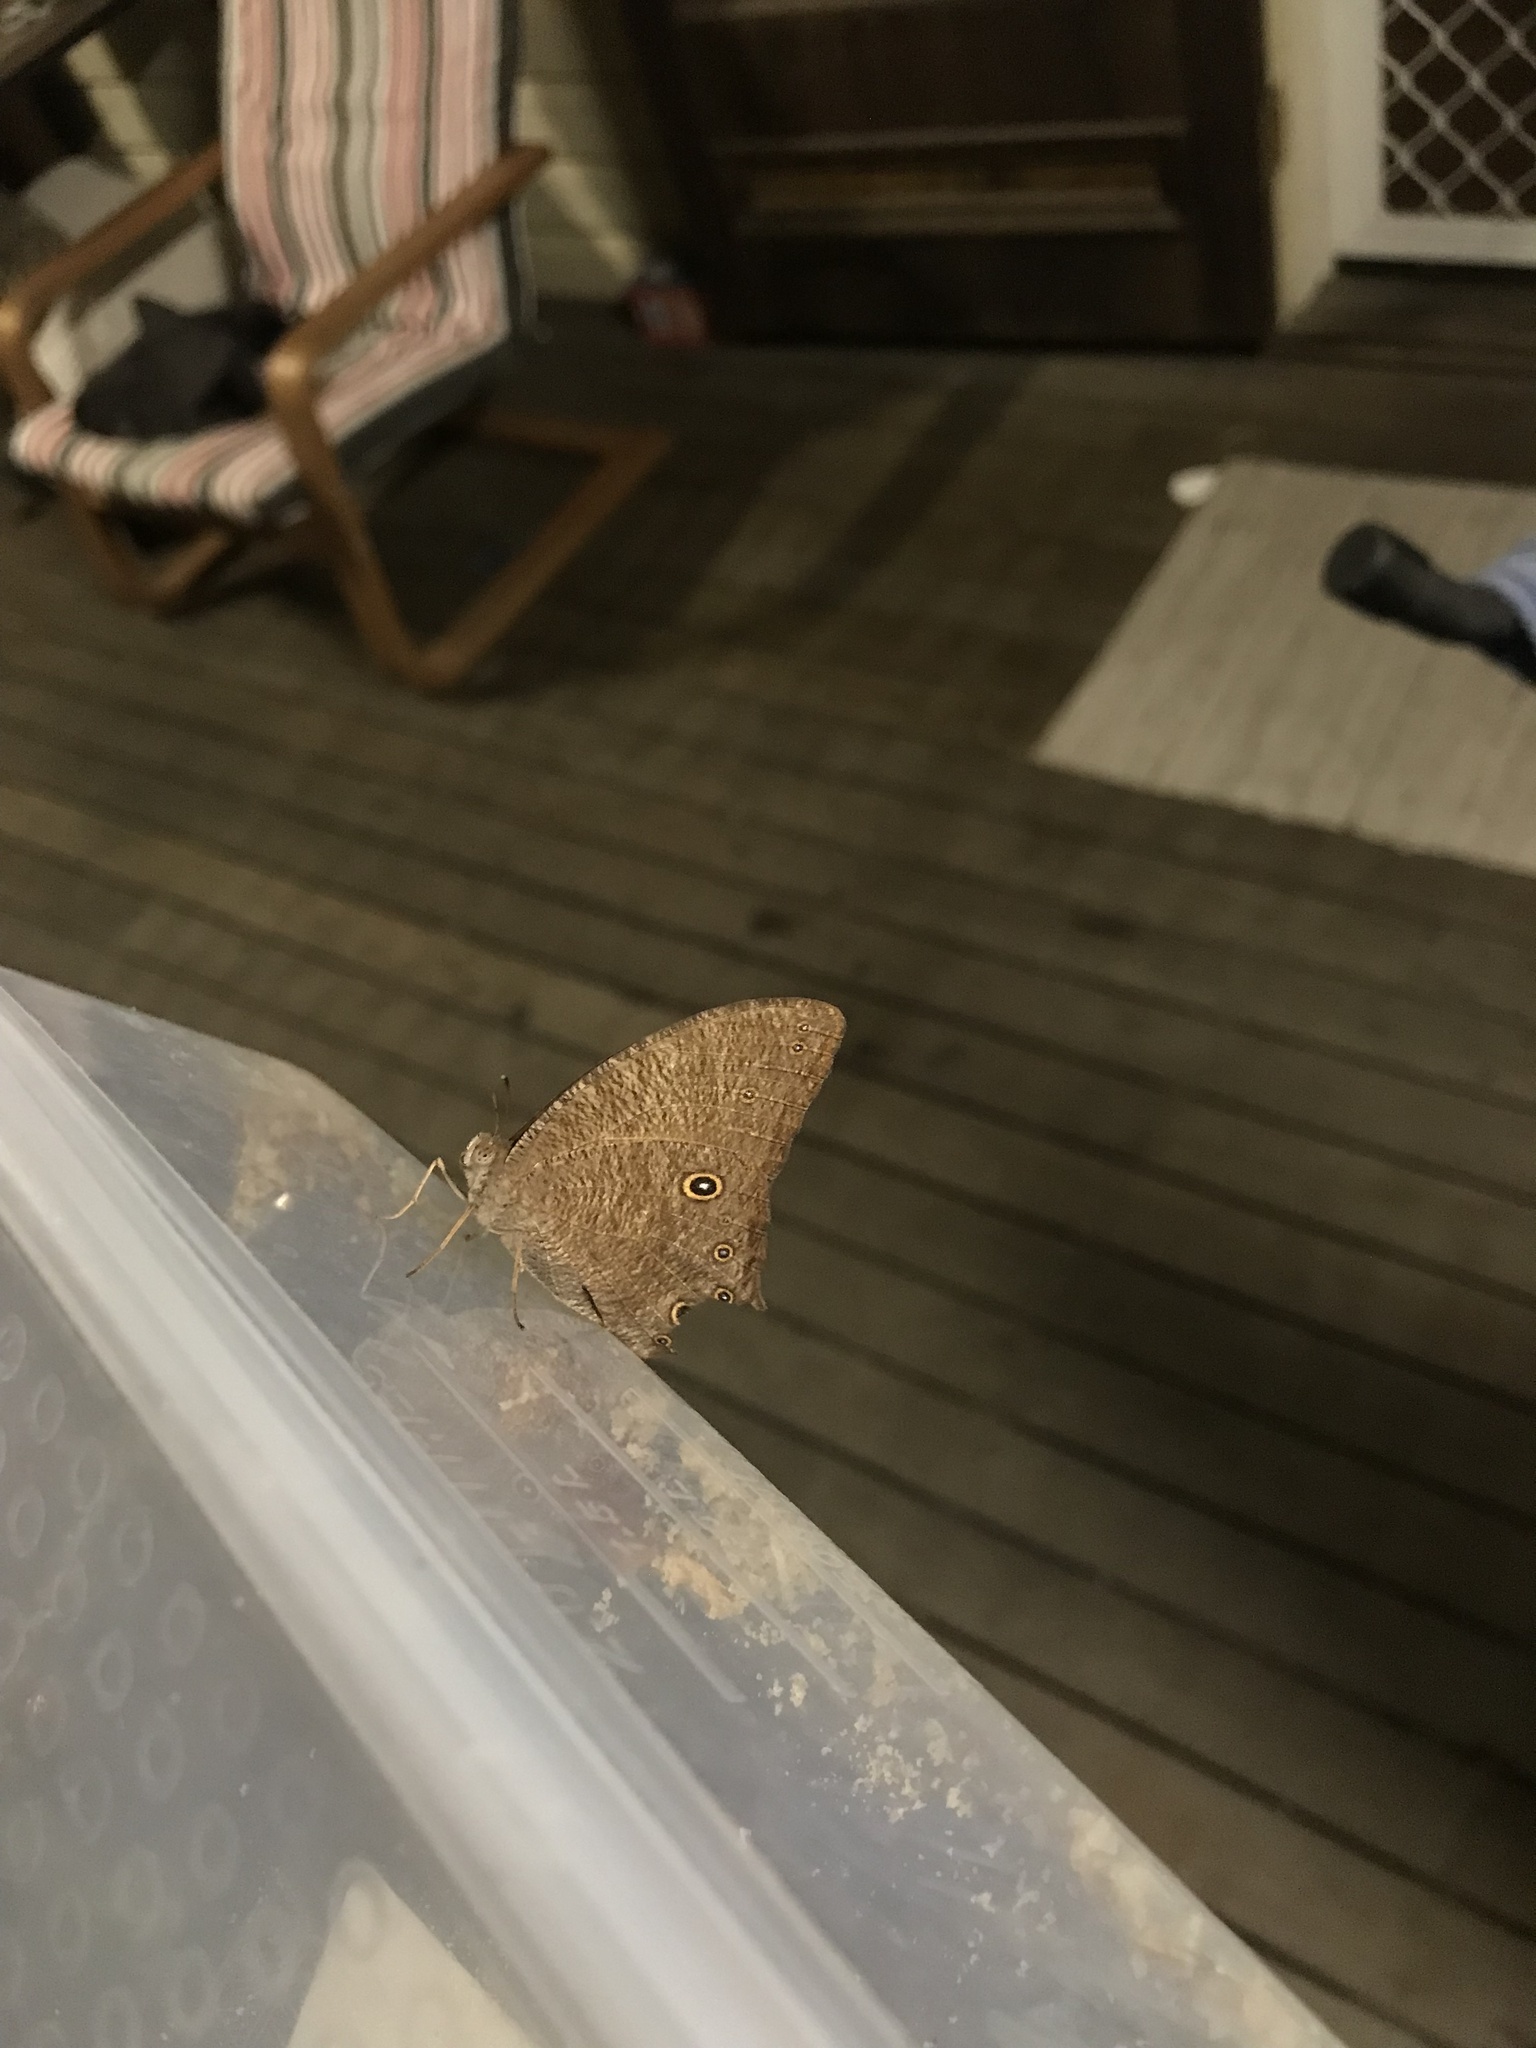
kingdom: Animalia
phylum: Arthropoda
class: Insecta
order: Lepidoptera
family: Nymphalidae
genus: Melanitis
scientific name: Melanitis leda
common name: Twilight brown
